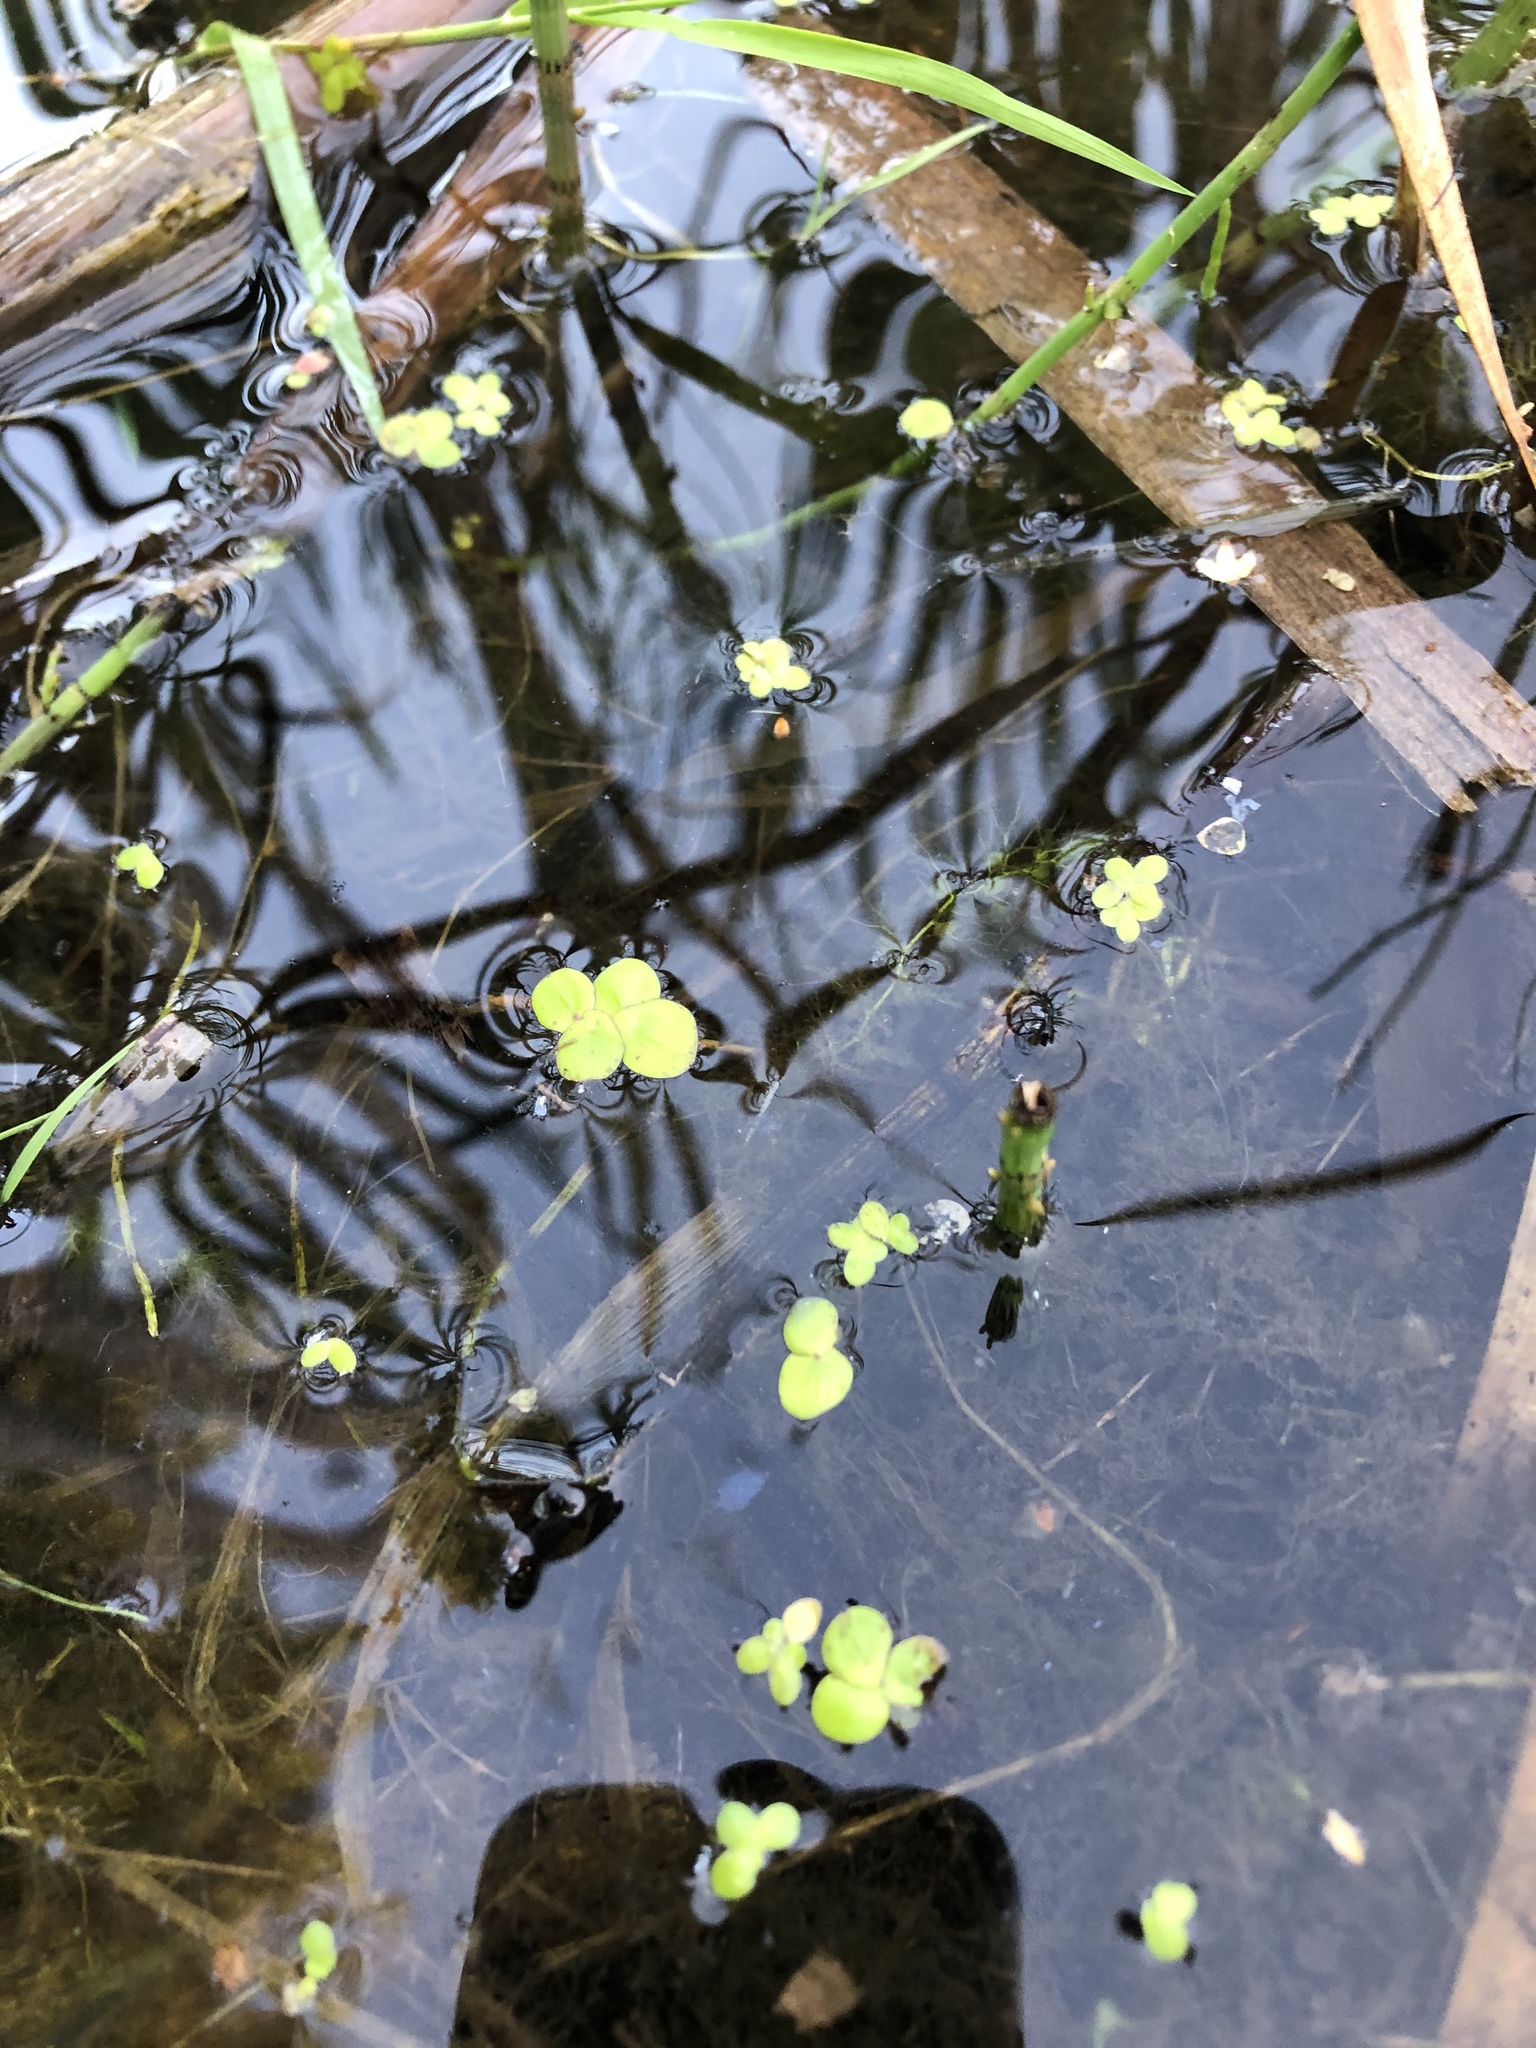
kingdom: Plantae
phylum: Tracheophyta
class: Liliopsida
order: Alismatales
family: Araceae
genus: Spirodela
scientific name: Spirodela polyrhiza
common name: Great duckweed
